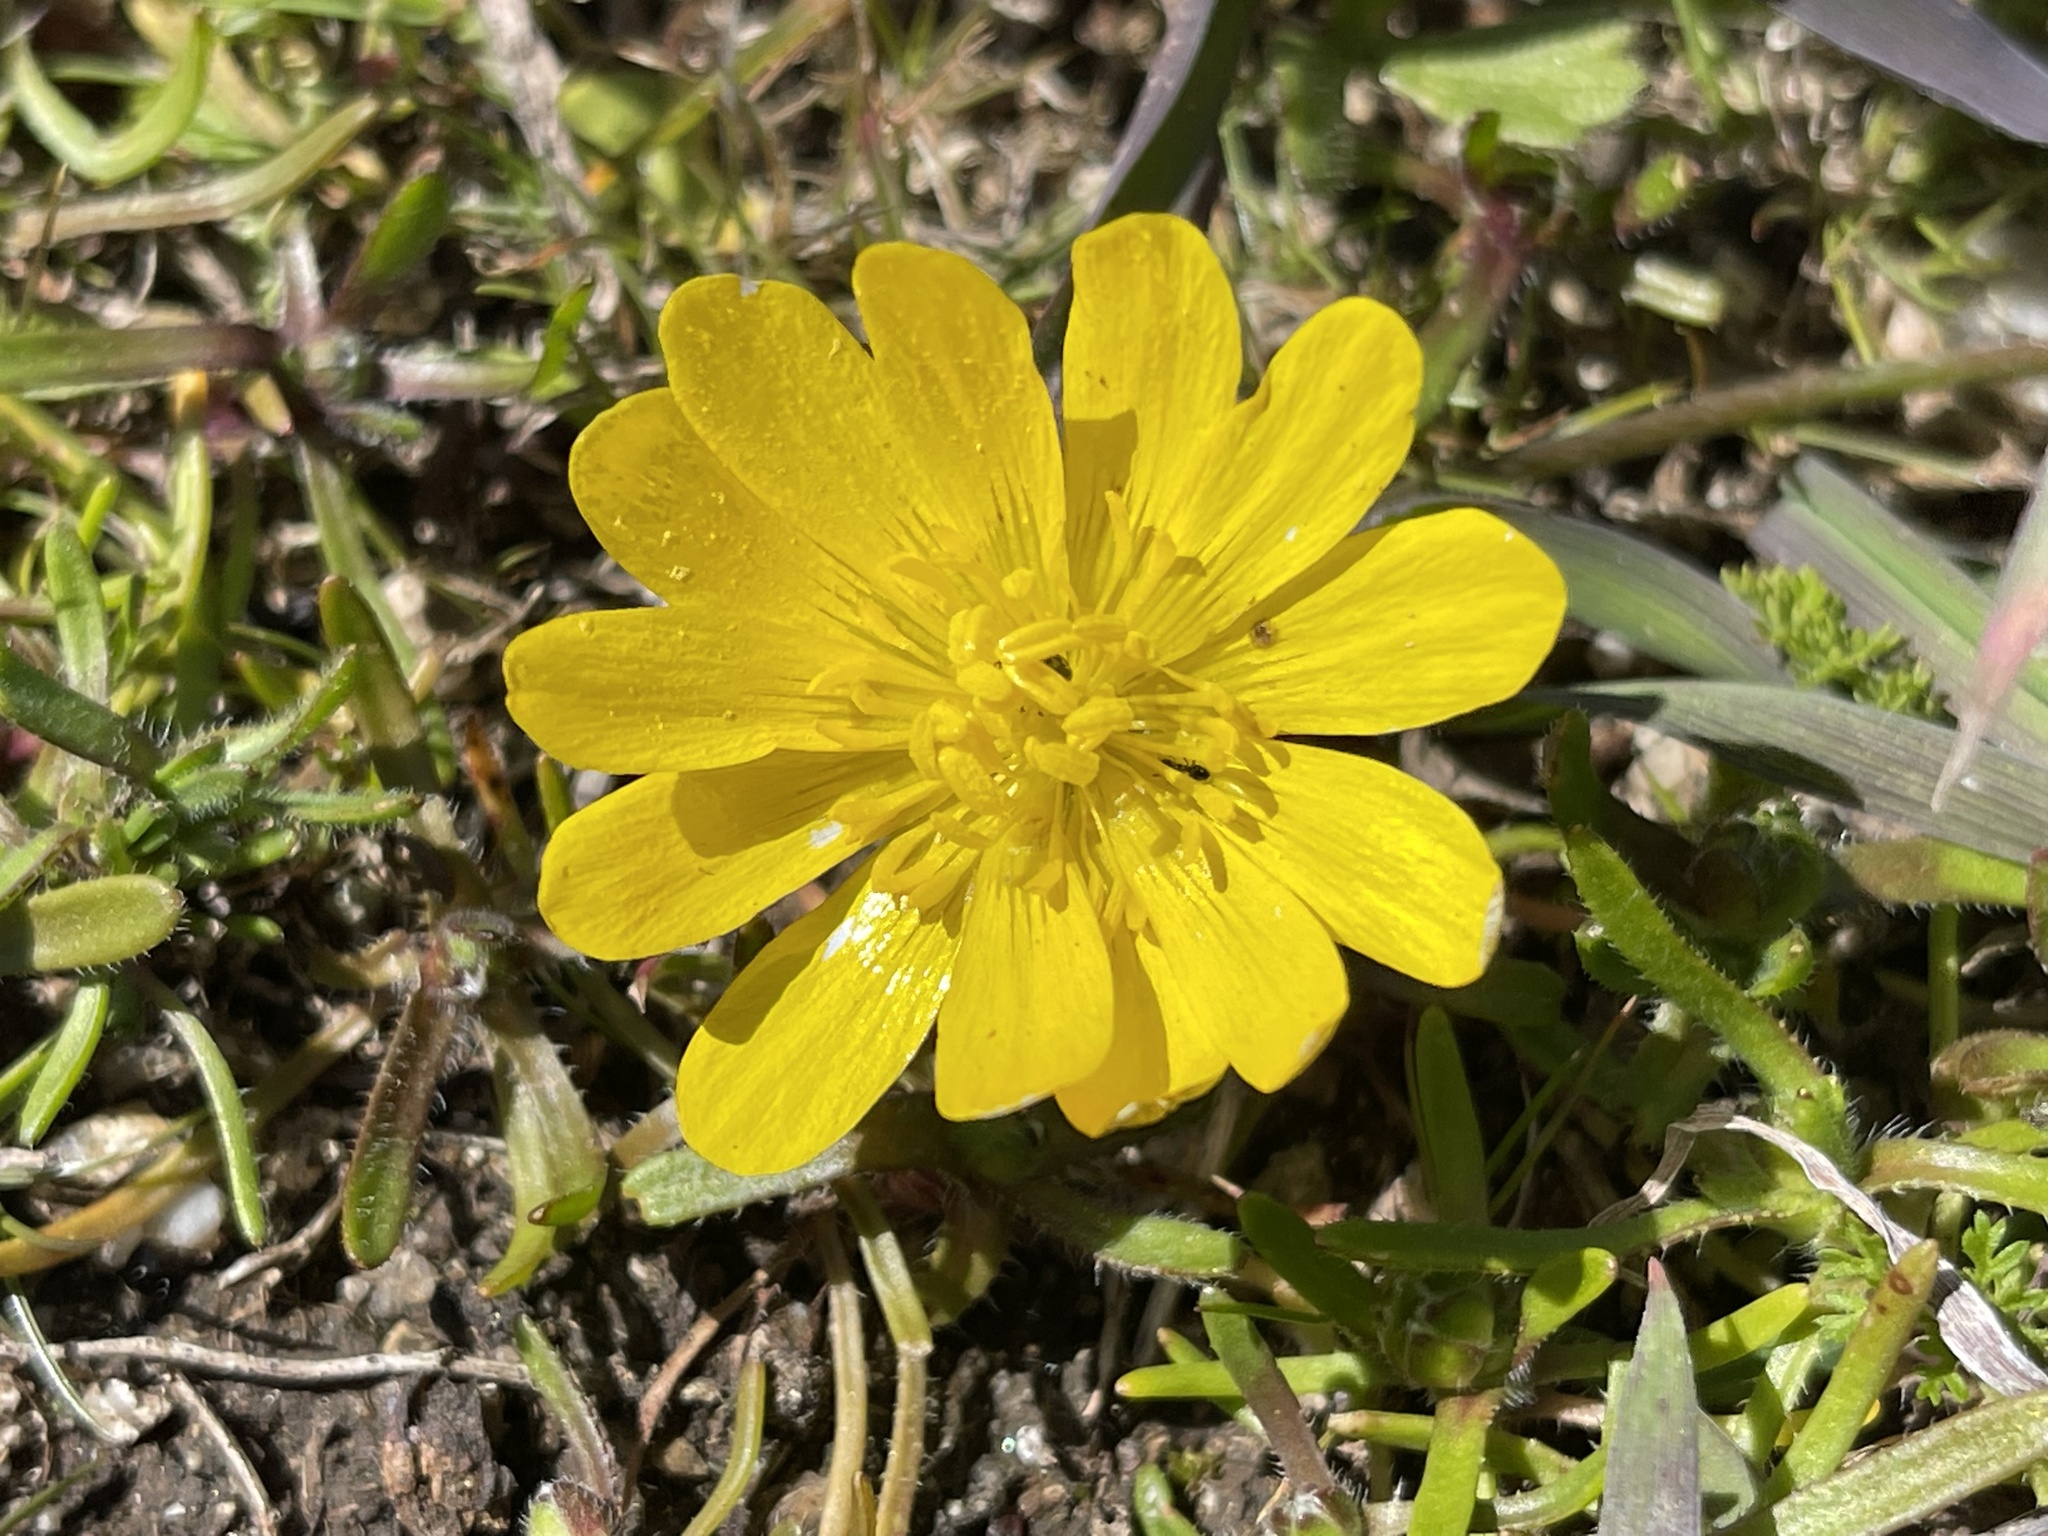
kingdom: Plantae
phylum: Tracheophyta
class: Magnoliopsida
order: Ranunculales
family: Ranunculaceae
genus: Ranunculus
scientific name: Ranunculus californicus
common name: California buttercup
